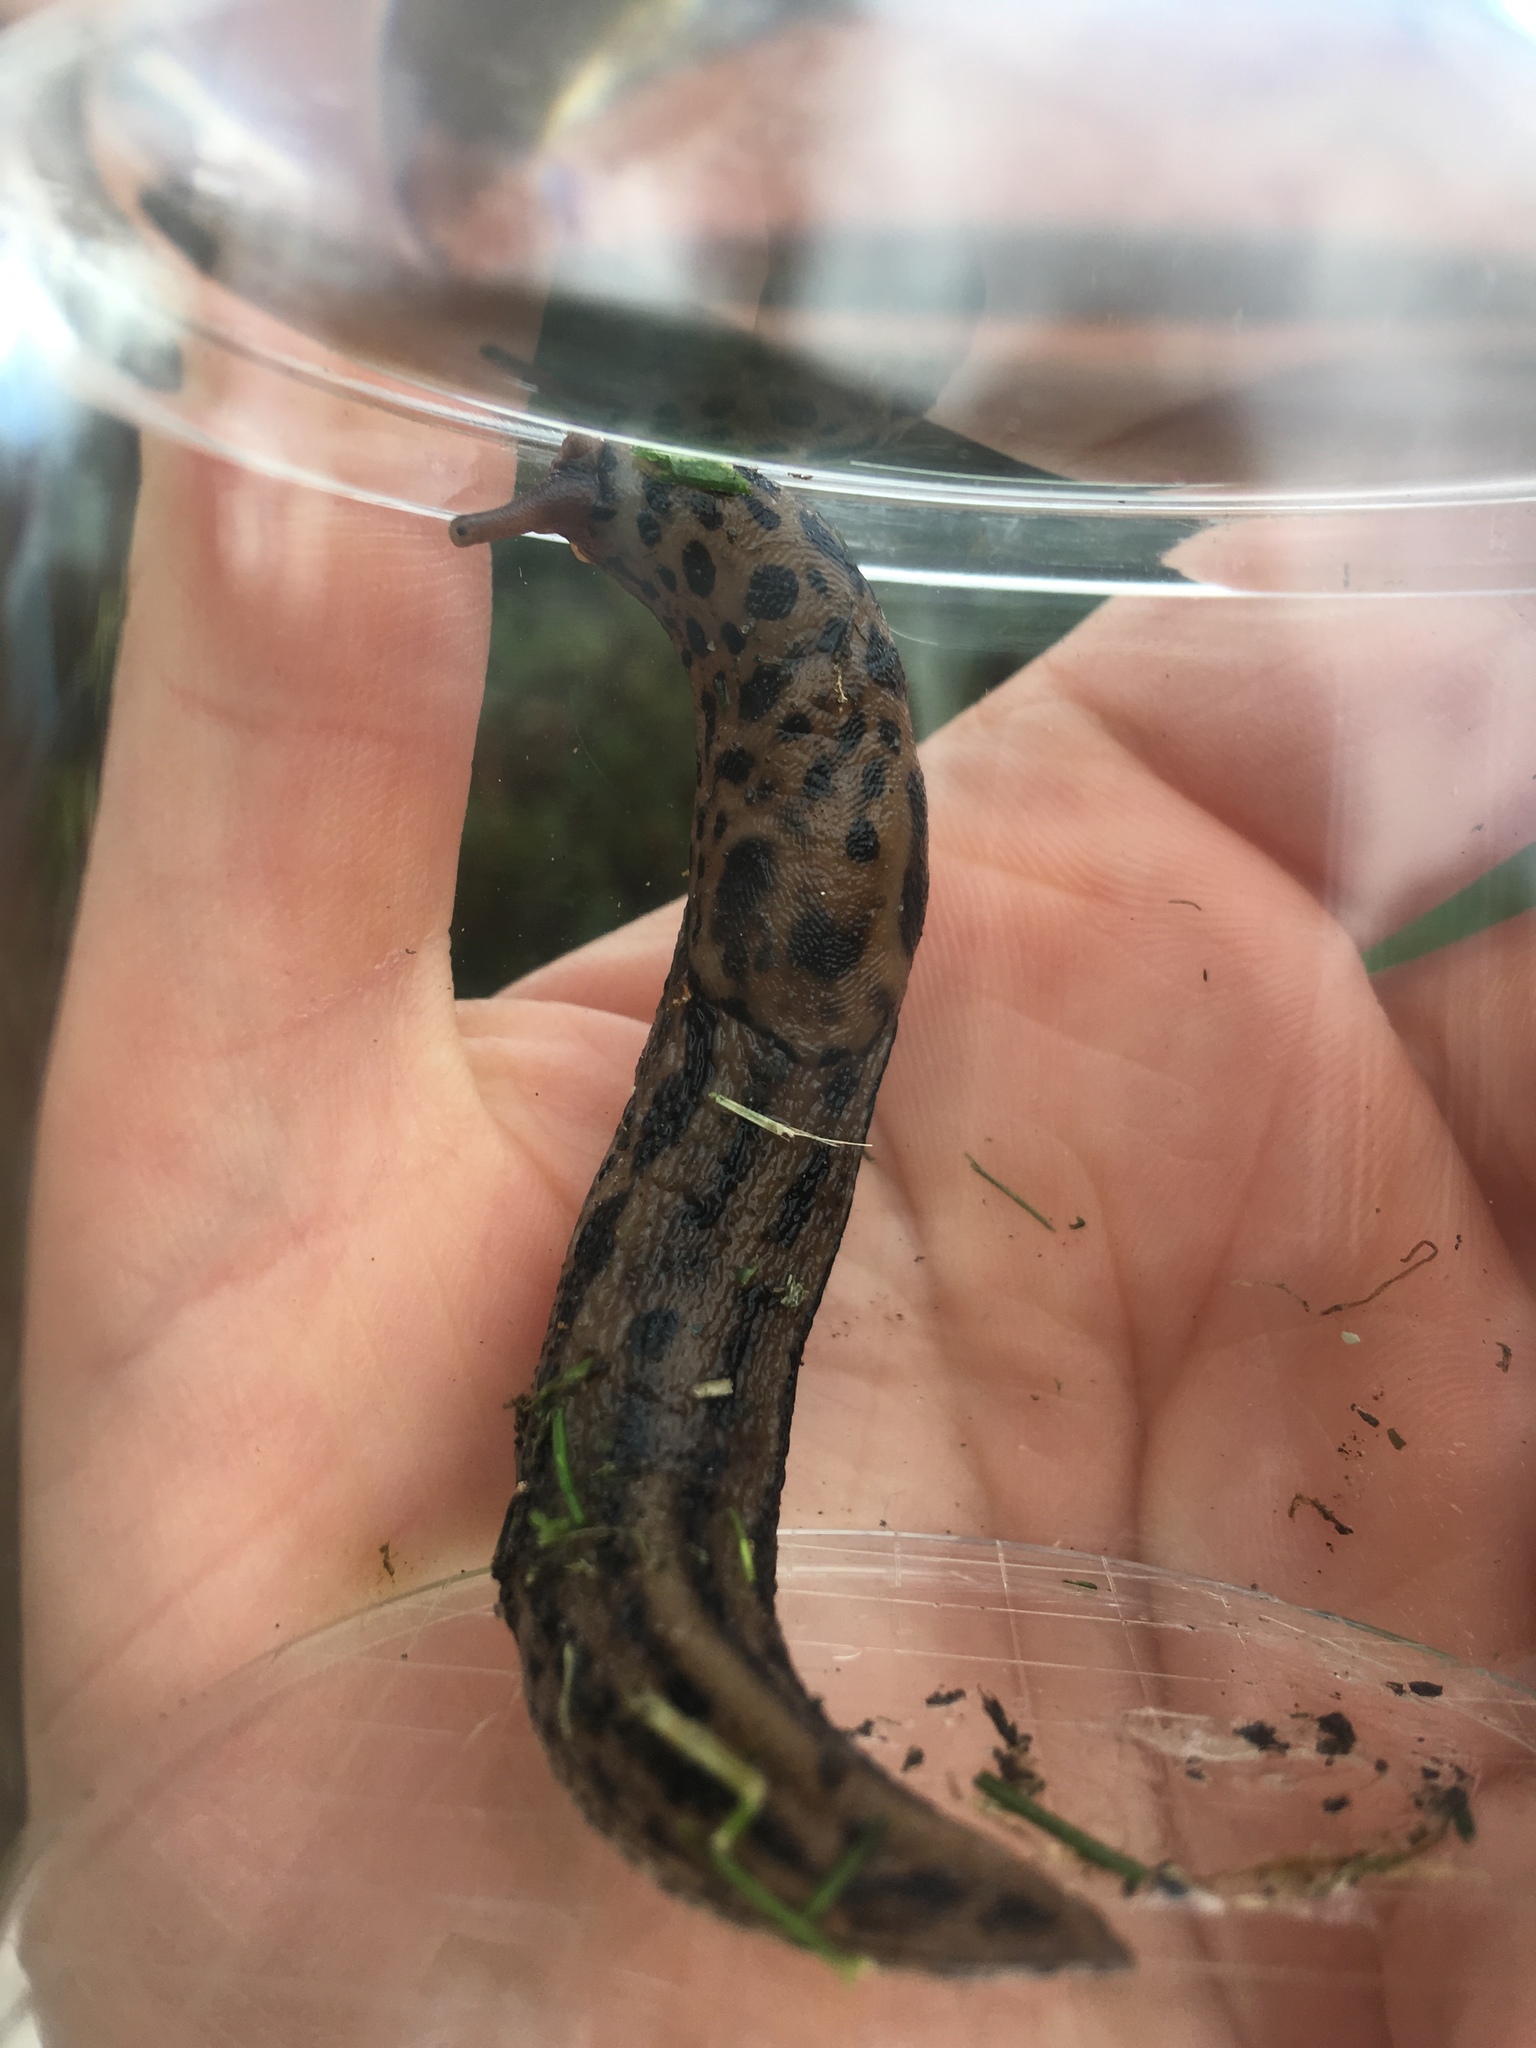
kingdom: Animalia
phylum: Mollusca
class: Gastropoda
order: Stylommatophora
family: Limacidae
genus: Limax
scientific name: Limax maximus
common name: Great grey slug
